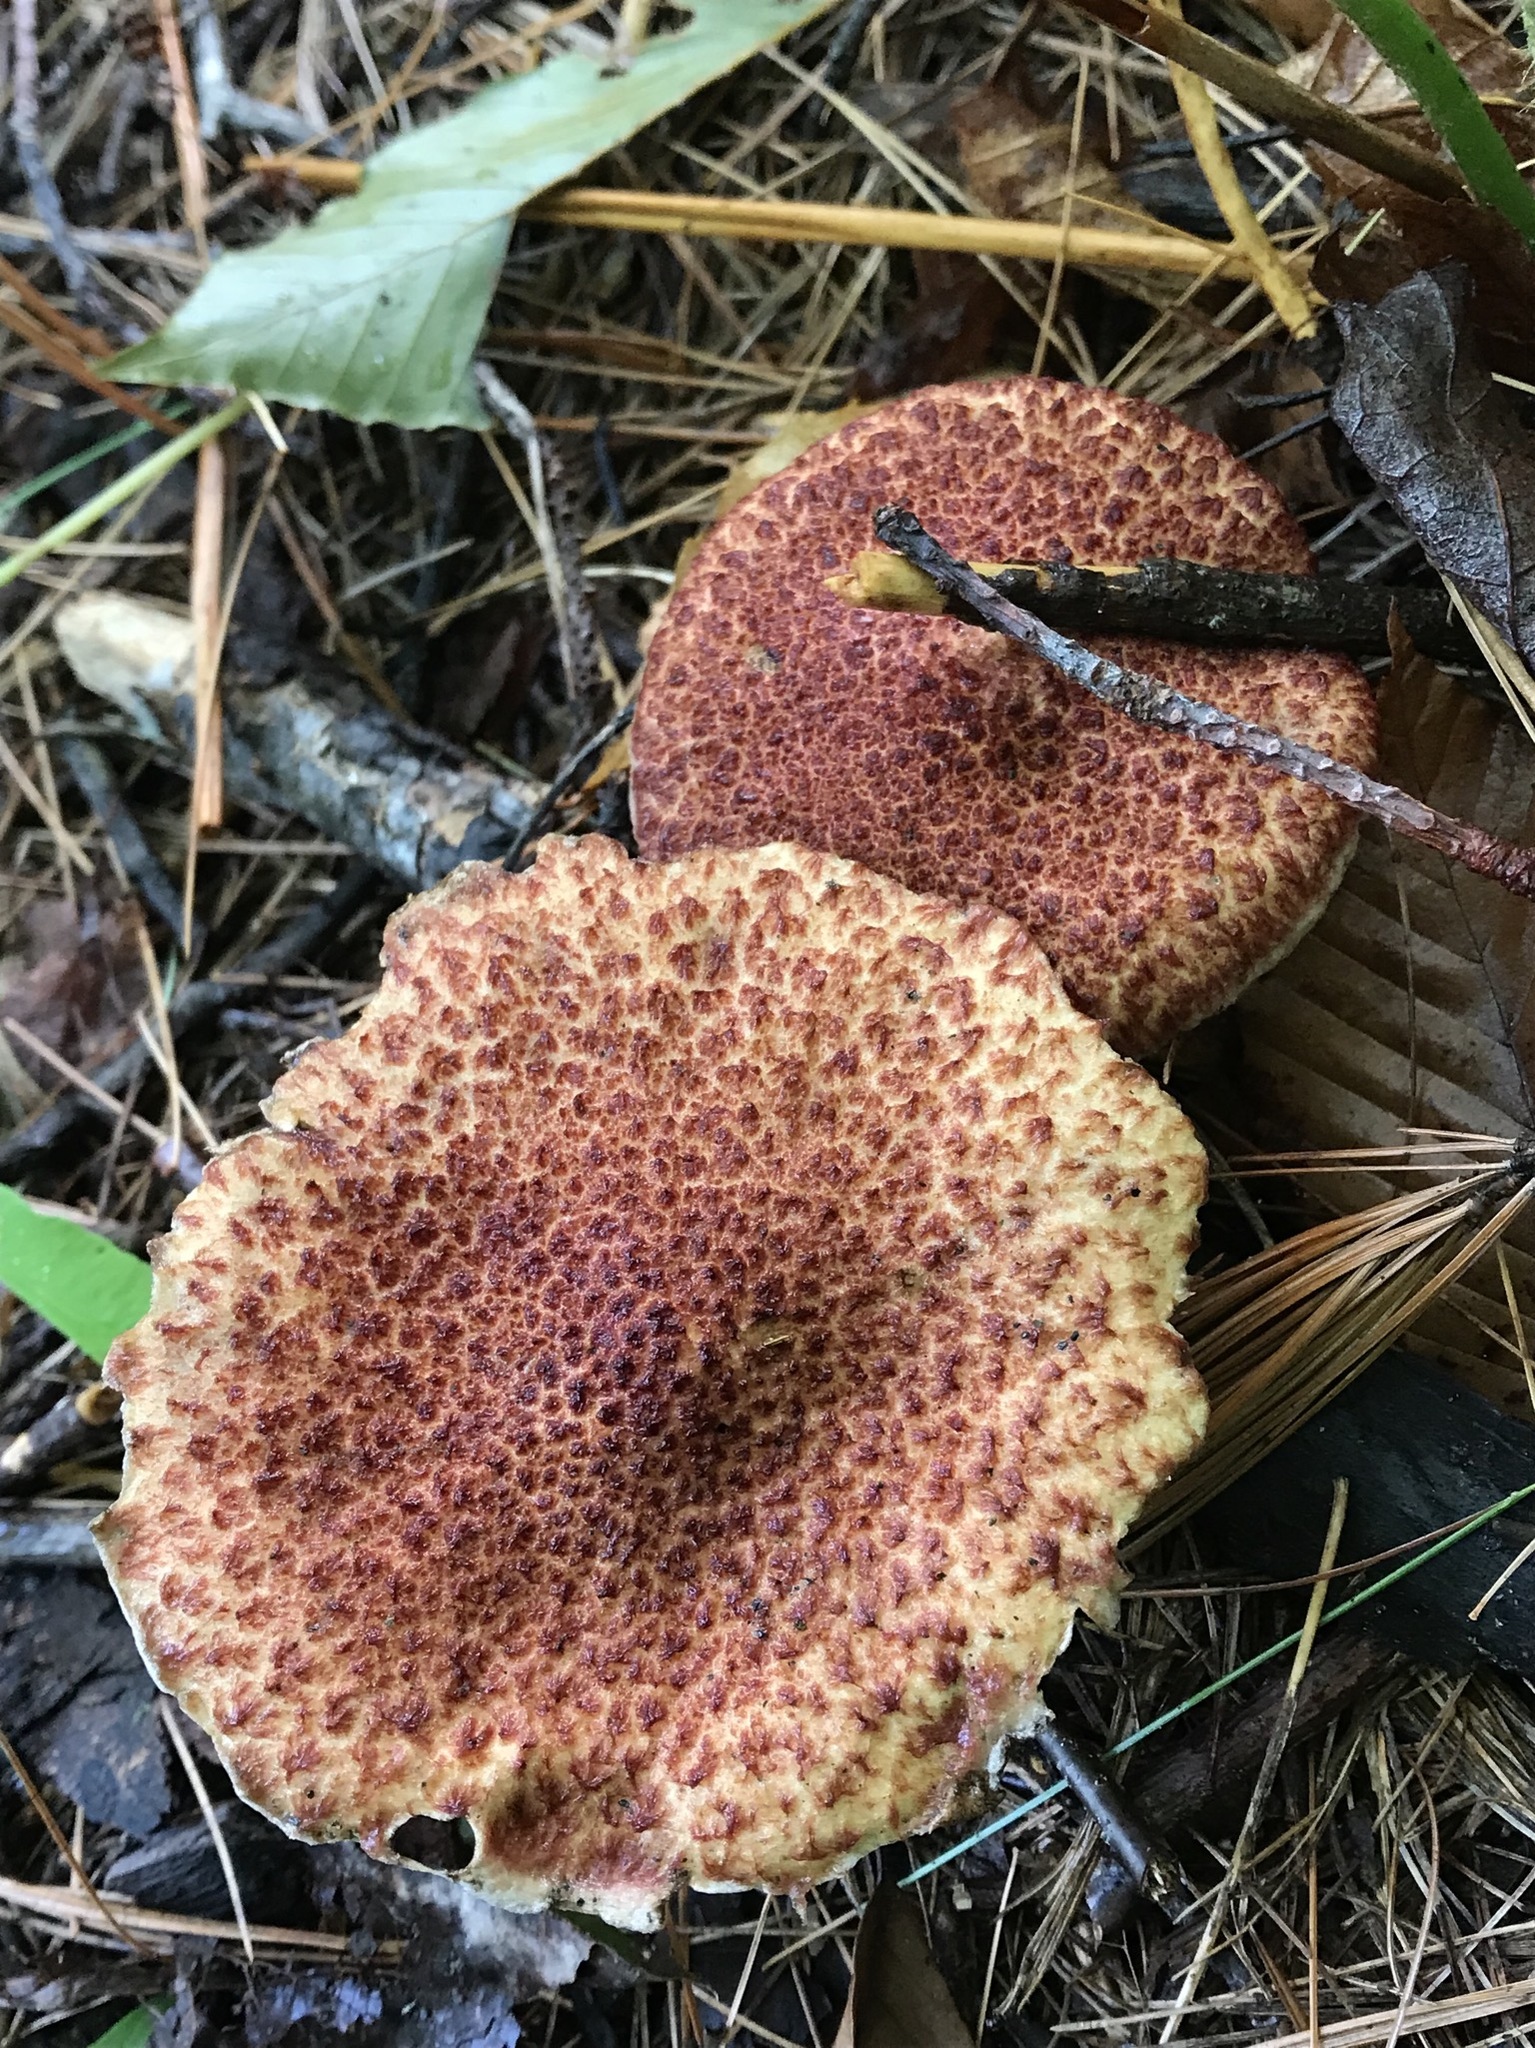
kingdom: Fungi
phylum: Basidiomycota
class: Agaricomycetes
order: Boletales
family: Suillaceae
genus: Suillus
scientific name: Suillus spraguei
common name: Painted suillus
